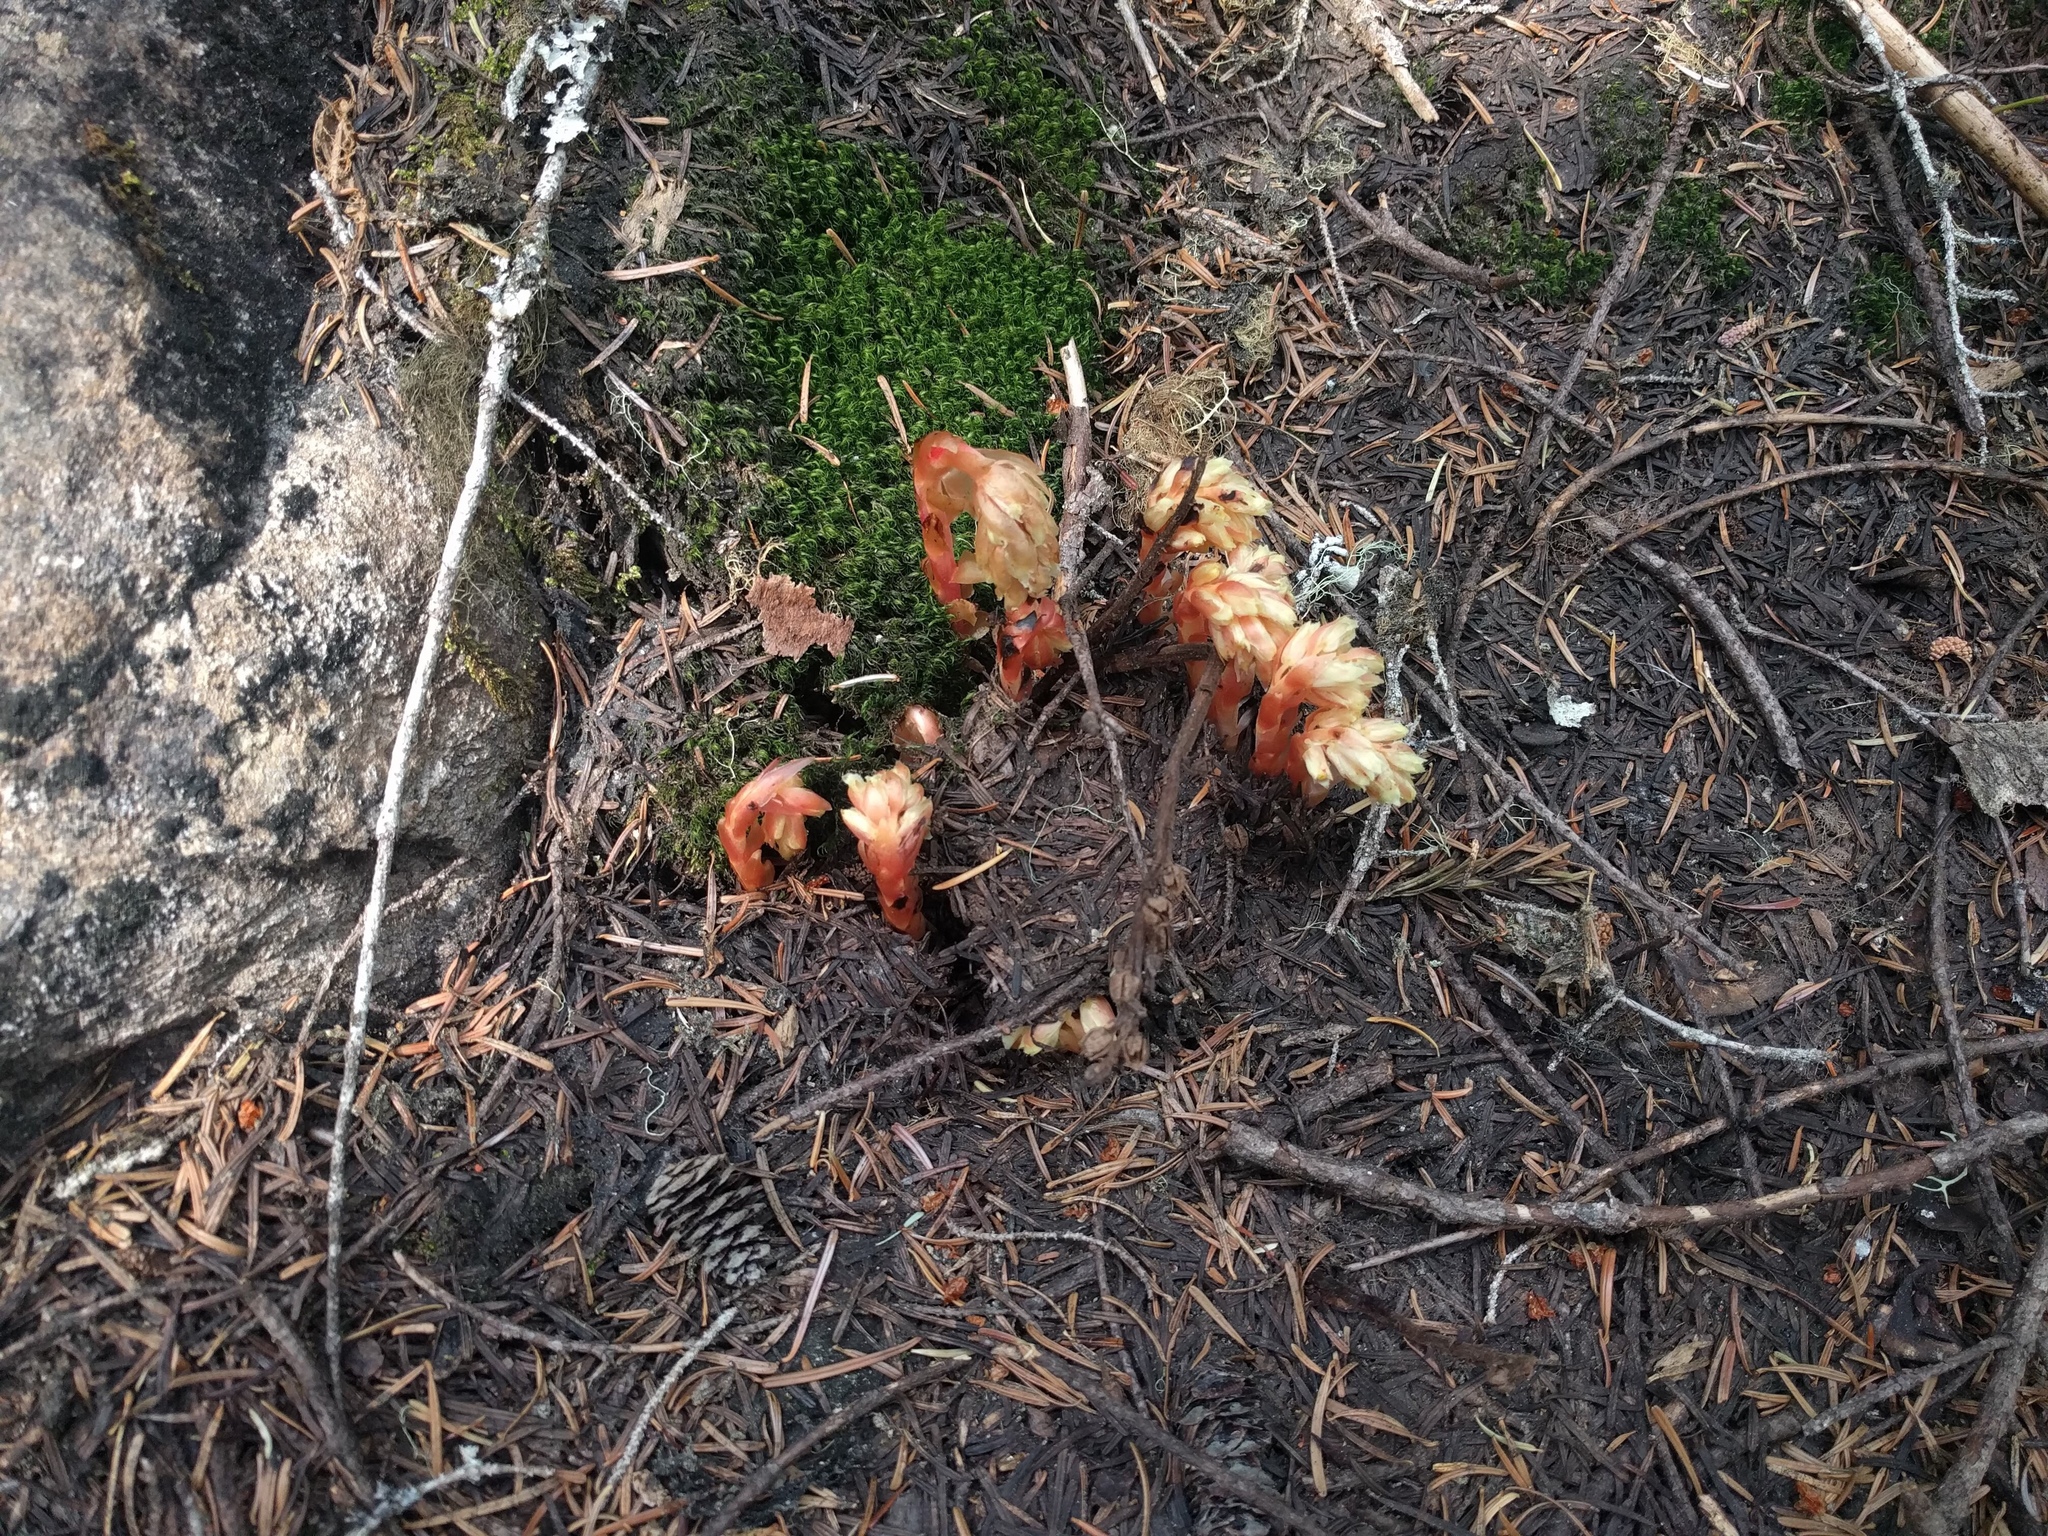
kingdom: Plantae
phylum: Tracheophyta
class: Magnoliopsida
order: Ericales
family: Ericaceae
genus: Hypopitys
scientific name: Hypopitys monotropa
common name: Yellow bird's-nest
